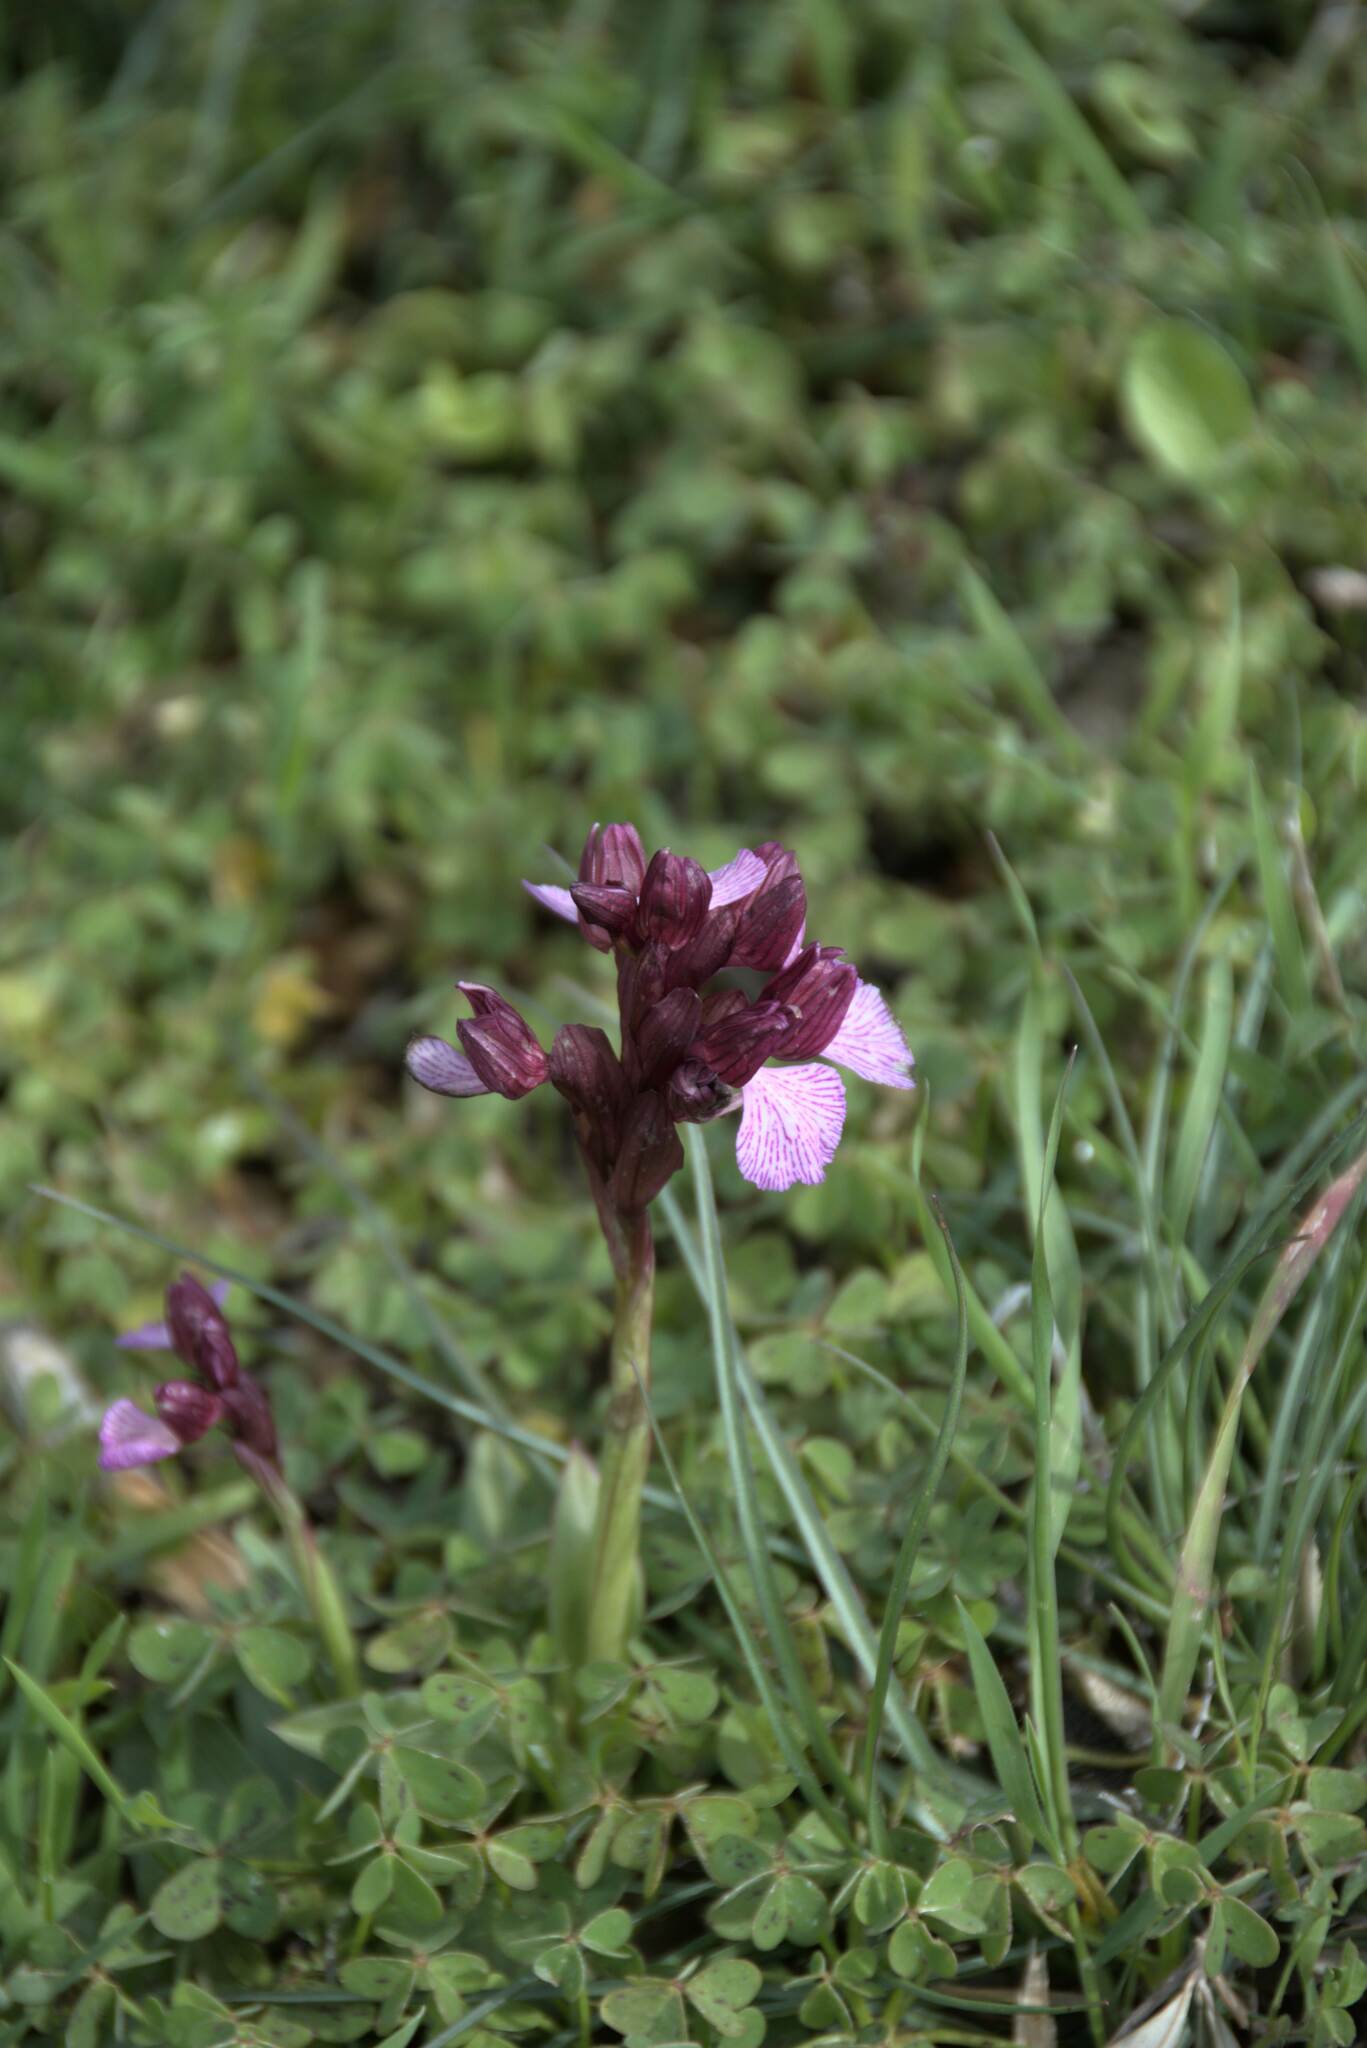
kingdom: Plantae
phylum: Tracheophyta
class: Liliopsida
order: Asparagales
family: Orchidaceae
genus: Anacamptis
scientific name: Anacamptis papilionacea
